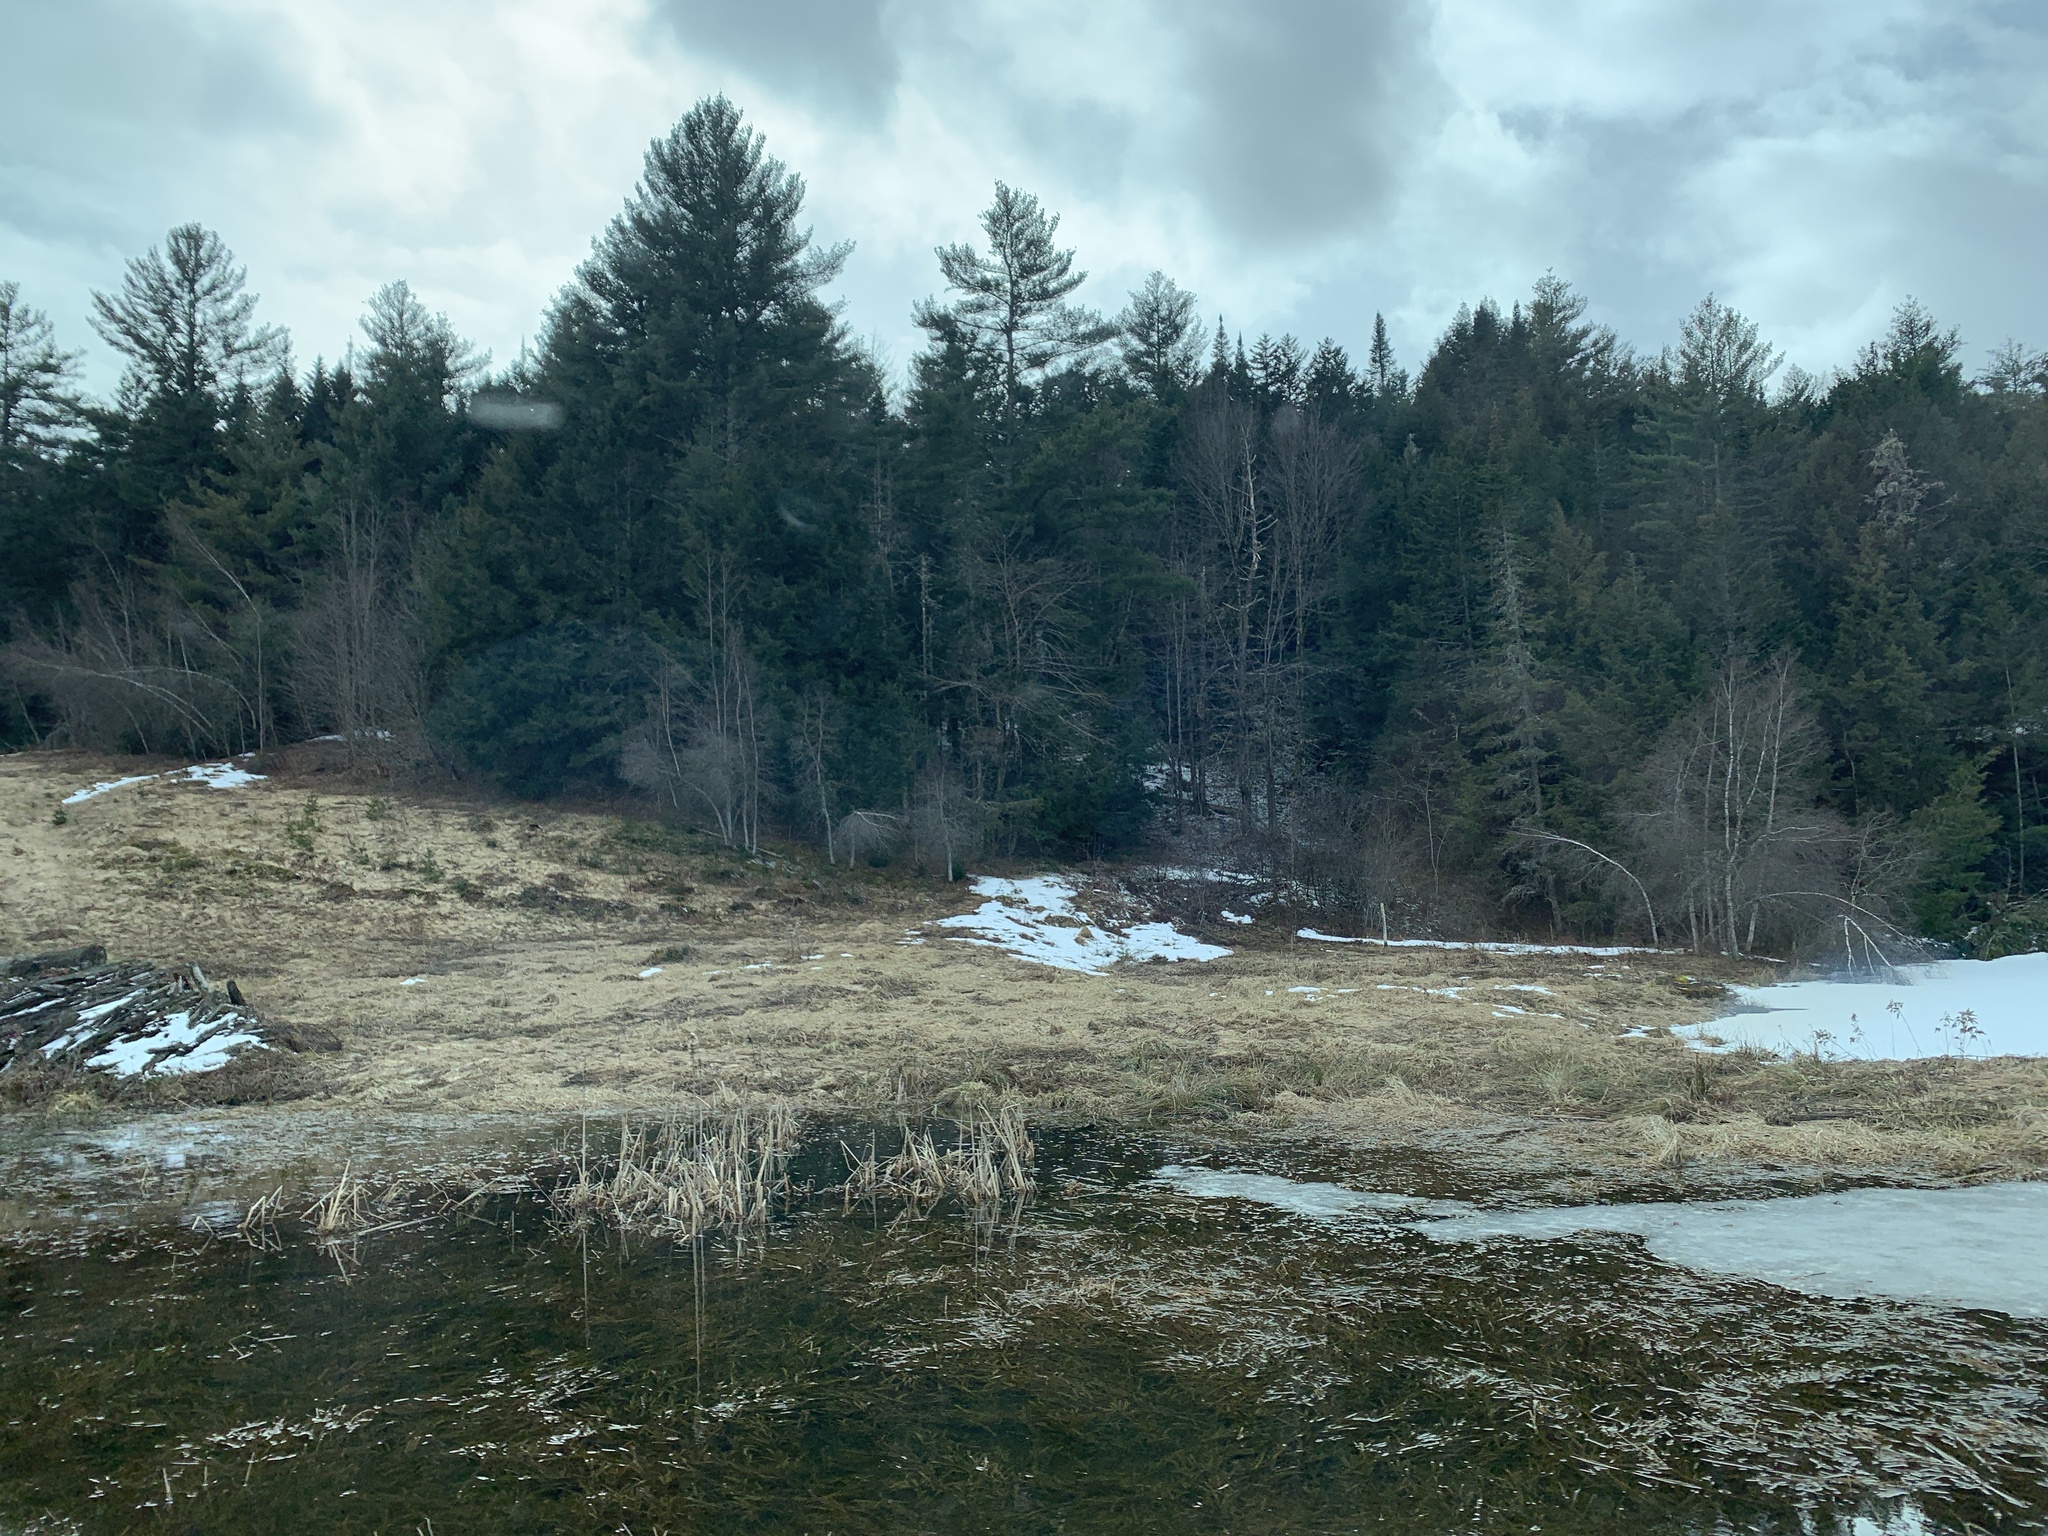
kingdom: Plantae
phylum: Tracheophyta
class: Pinopsida
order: Pinales
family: Pinaceae
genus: Pinus
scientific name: Pinus strobus
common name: Weymouth pine
